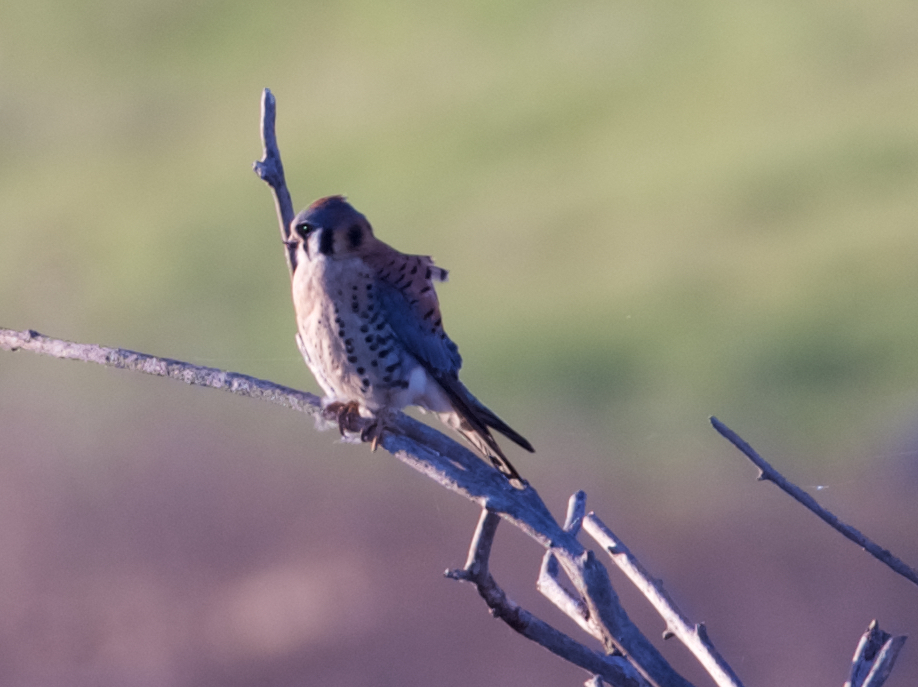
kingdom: Animalia
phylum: Chordata
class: Aves
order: Falconiformes
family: Falconidae
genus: Falco
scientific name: Falco sparverius
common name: American kestrel
